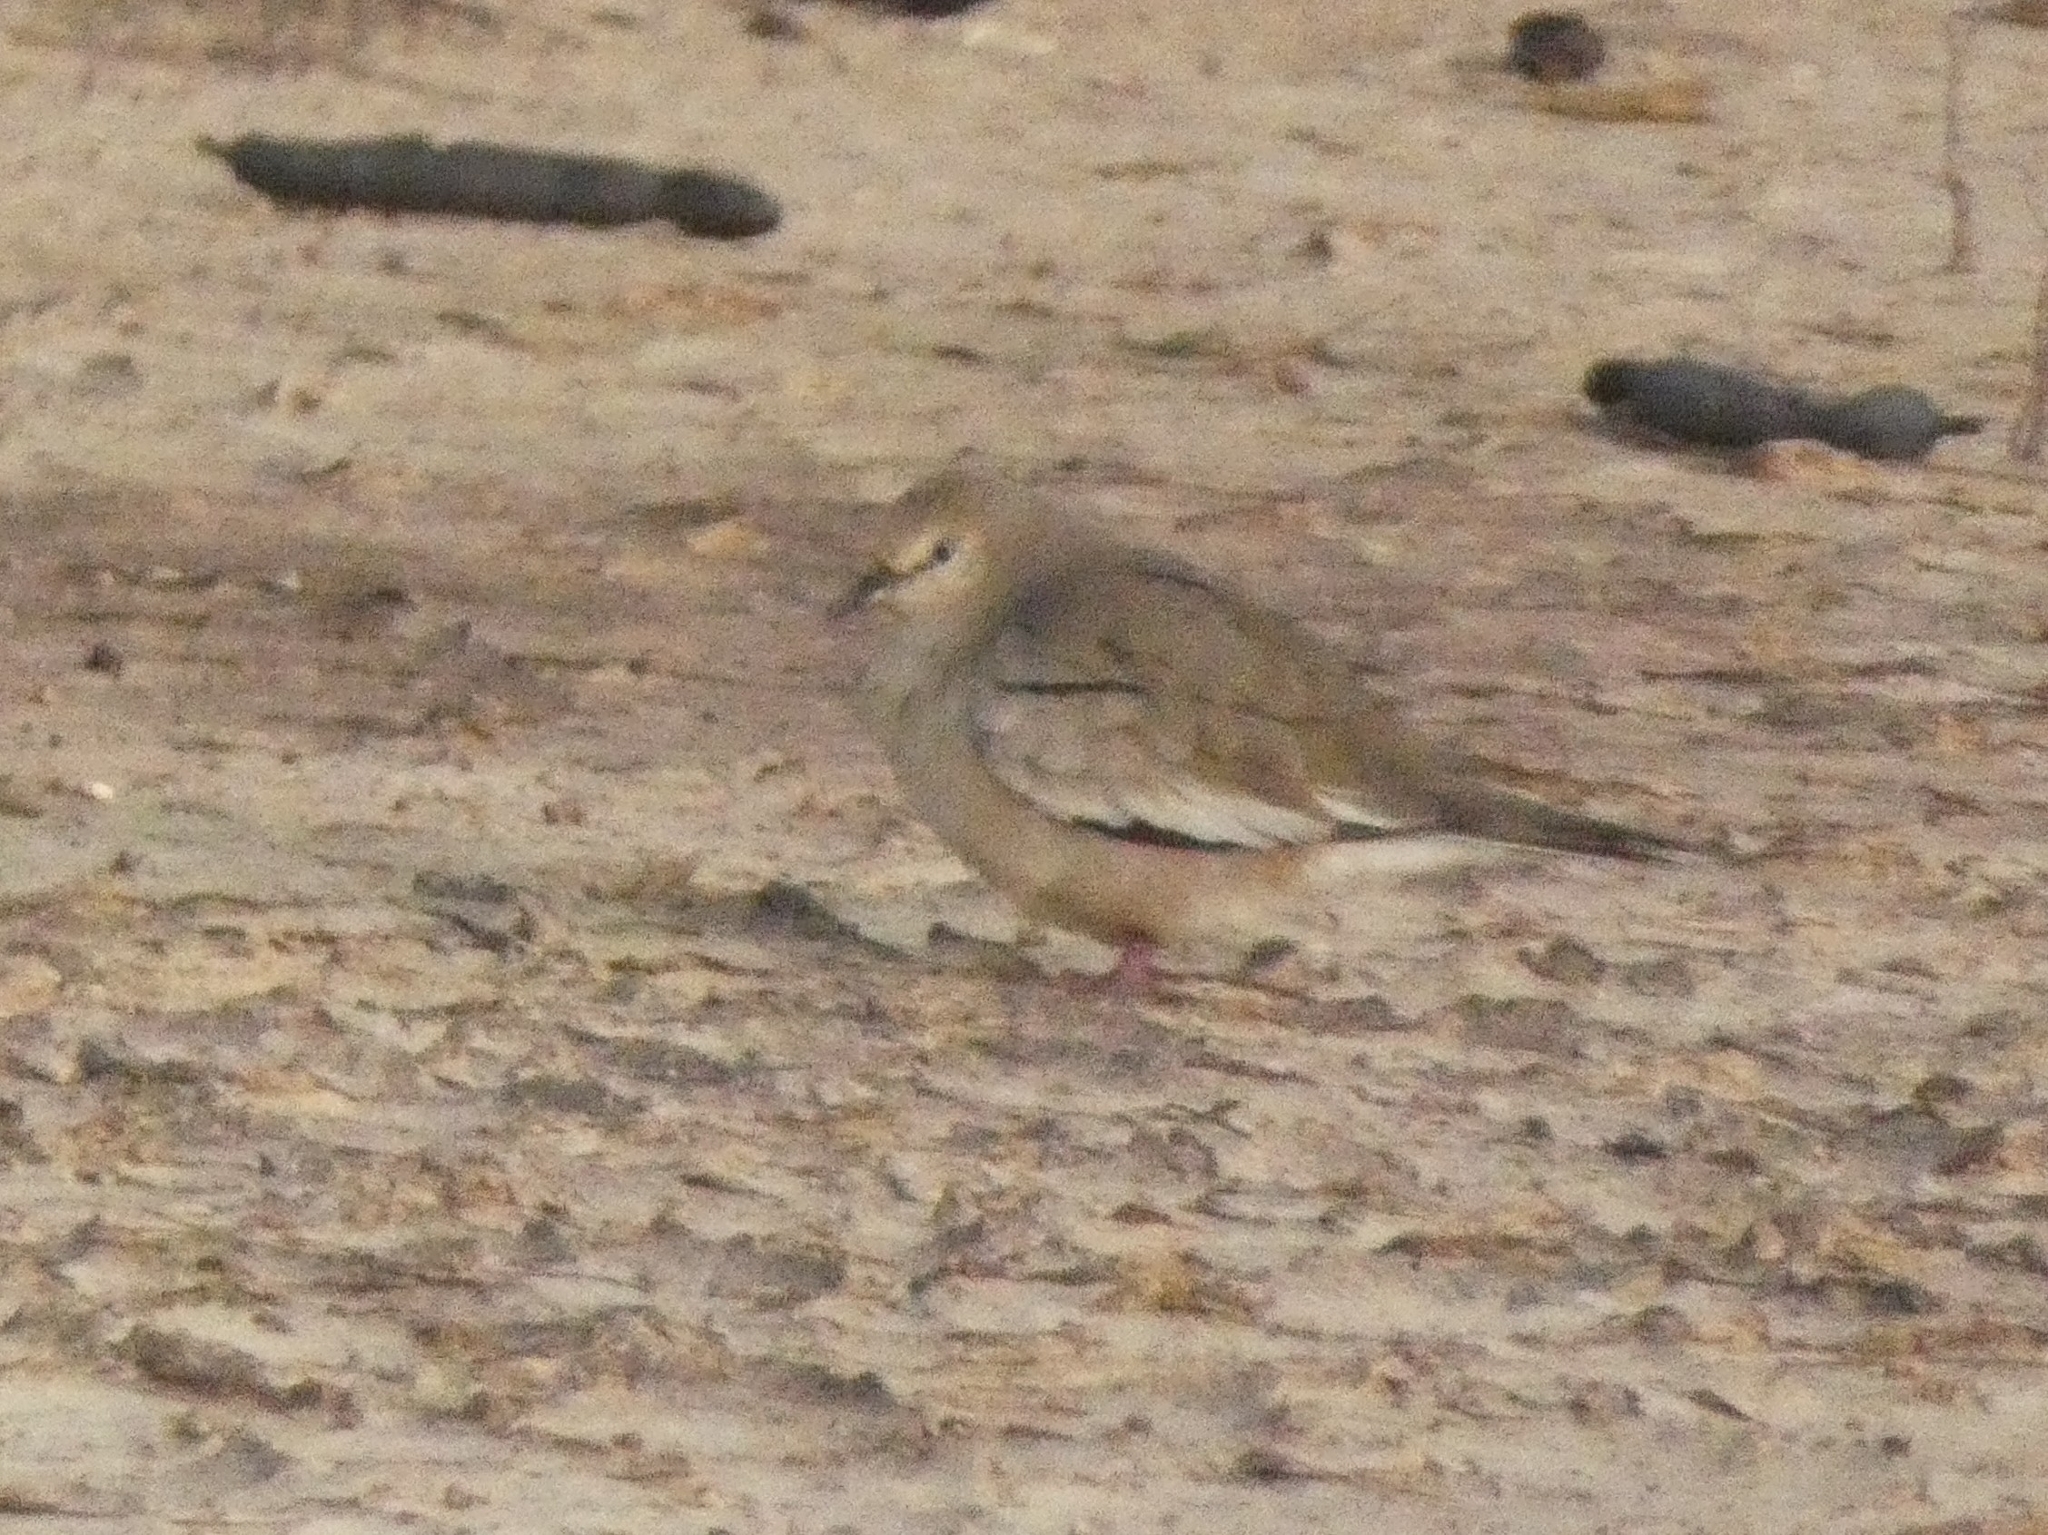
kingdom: Animalia
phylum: Chordata
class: Aves
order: Columbiformes
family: Columbidae
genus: Columbina
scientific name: Columbina picui
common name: Picui ground dove
